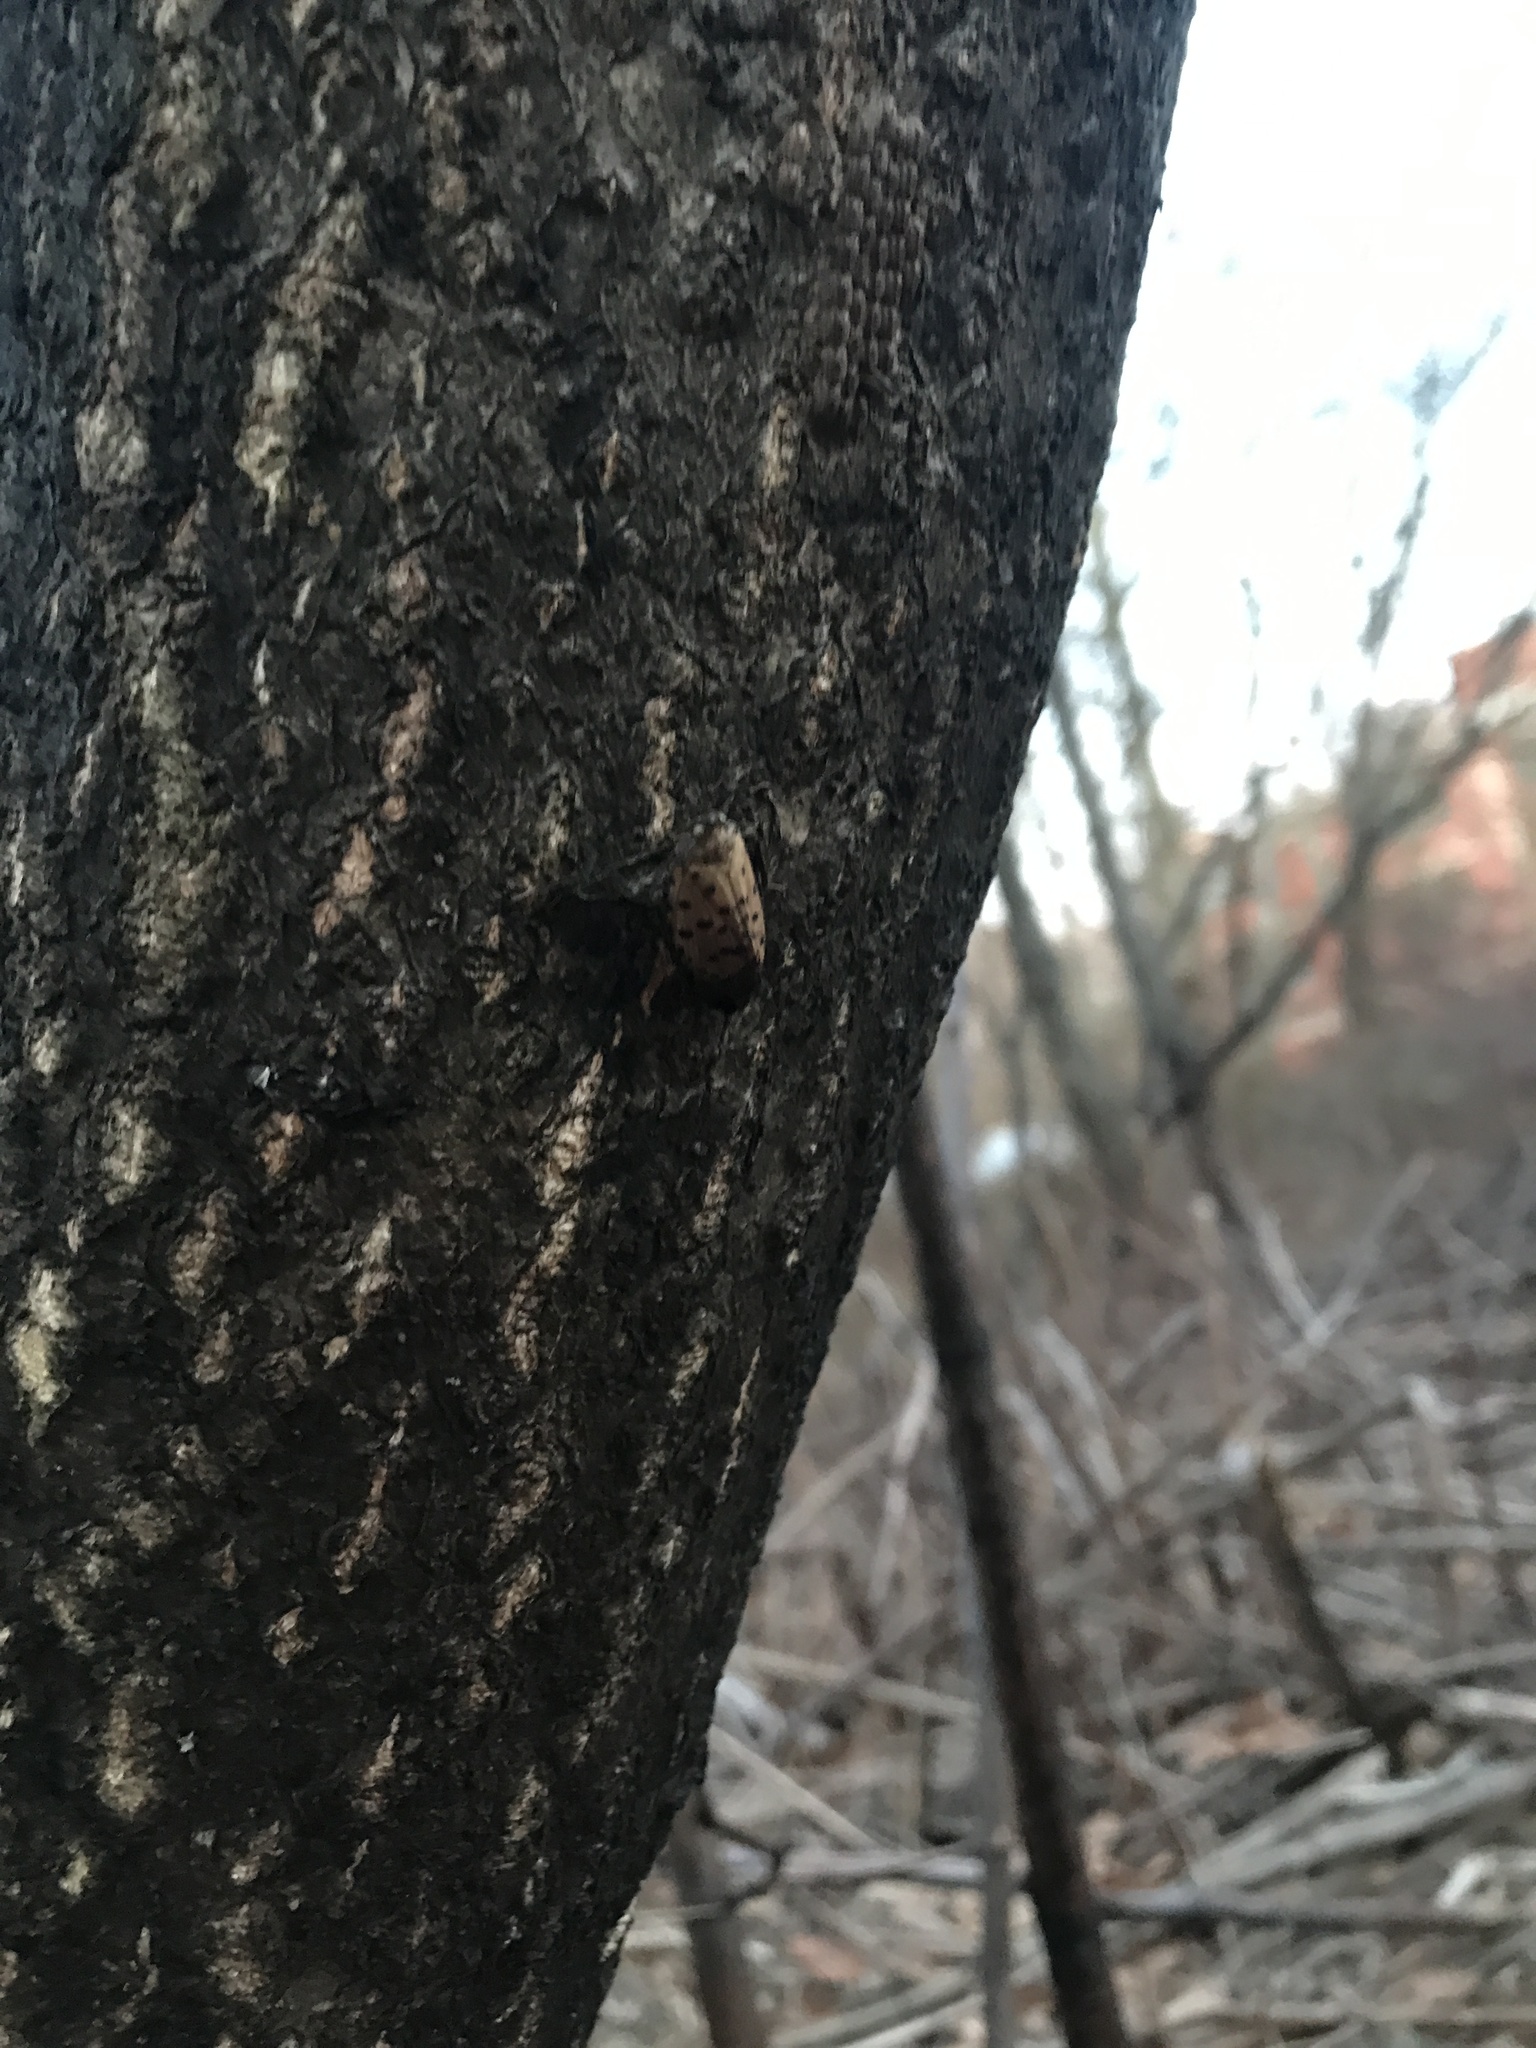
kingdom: Animalia
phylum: Arthropoda
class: Insecta
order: Hemiptera
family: Fulgoridae
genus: Lycorma
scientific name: Lycorma delicatula
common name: Spotted lanternfly
